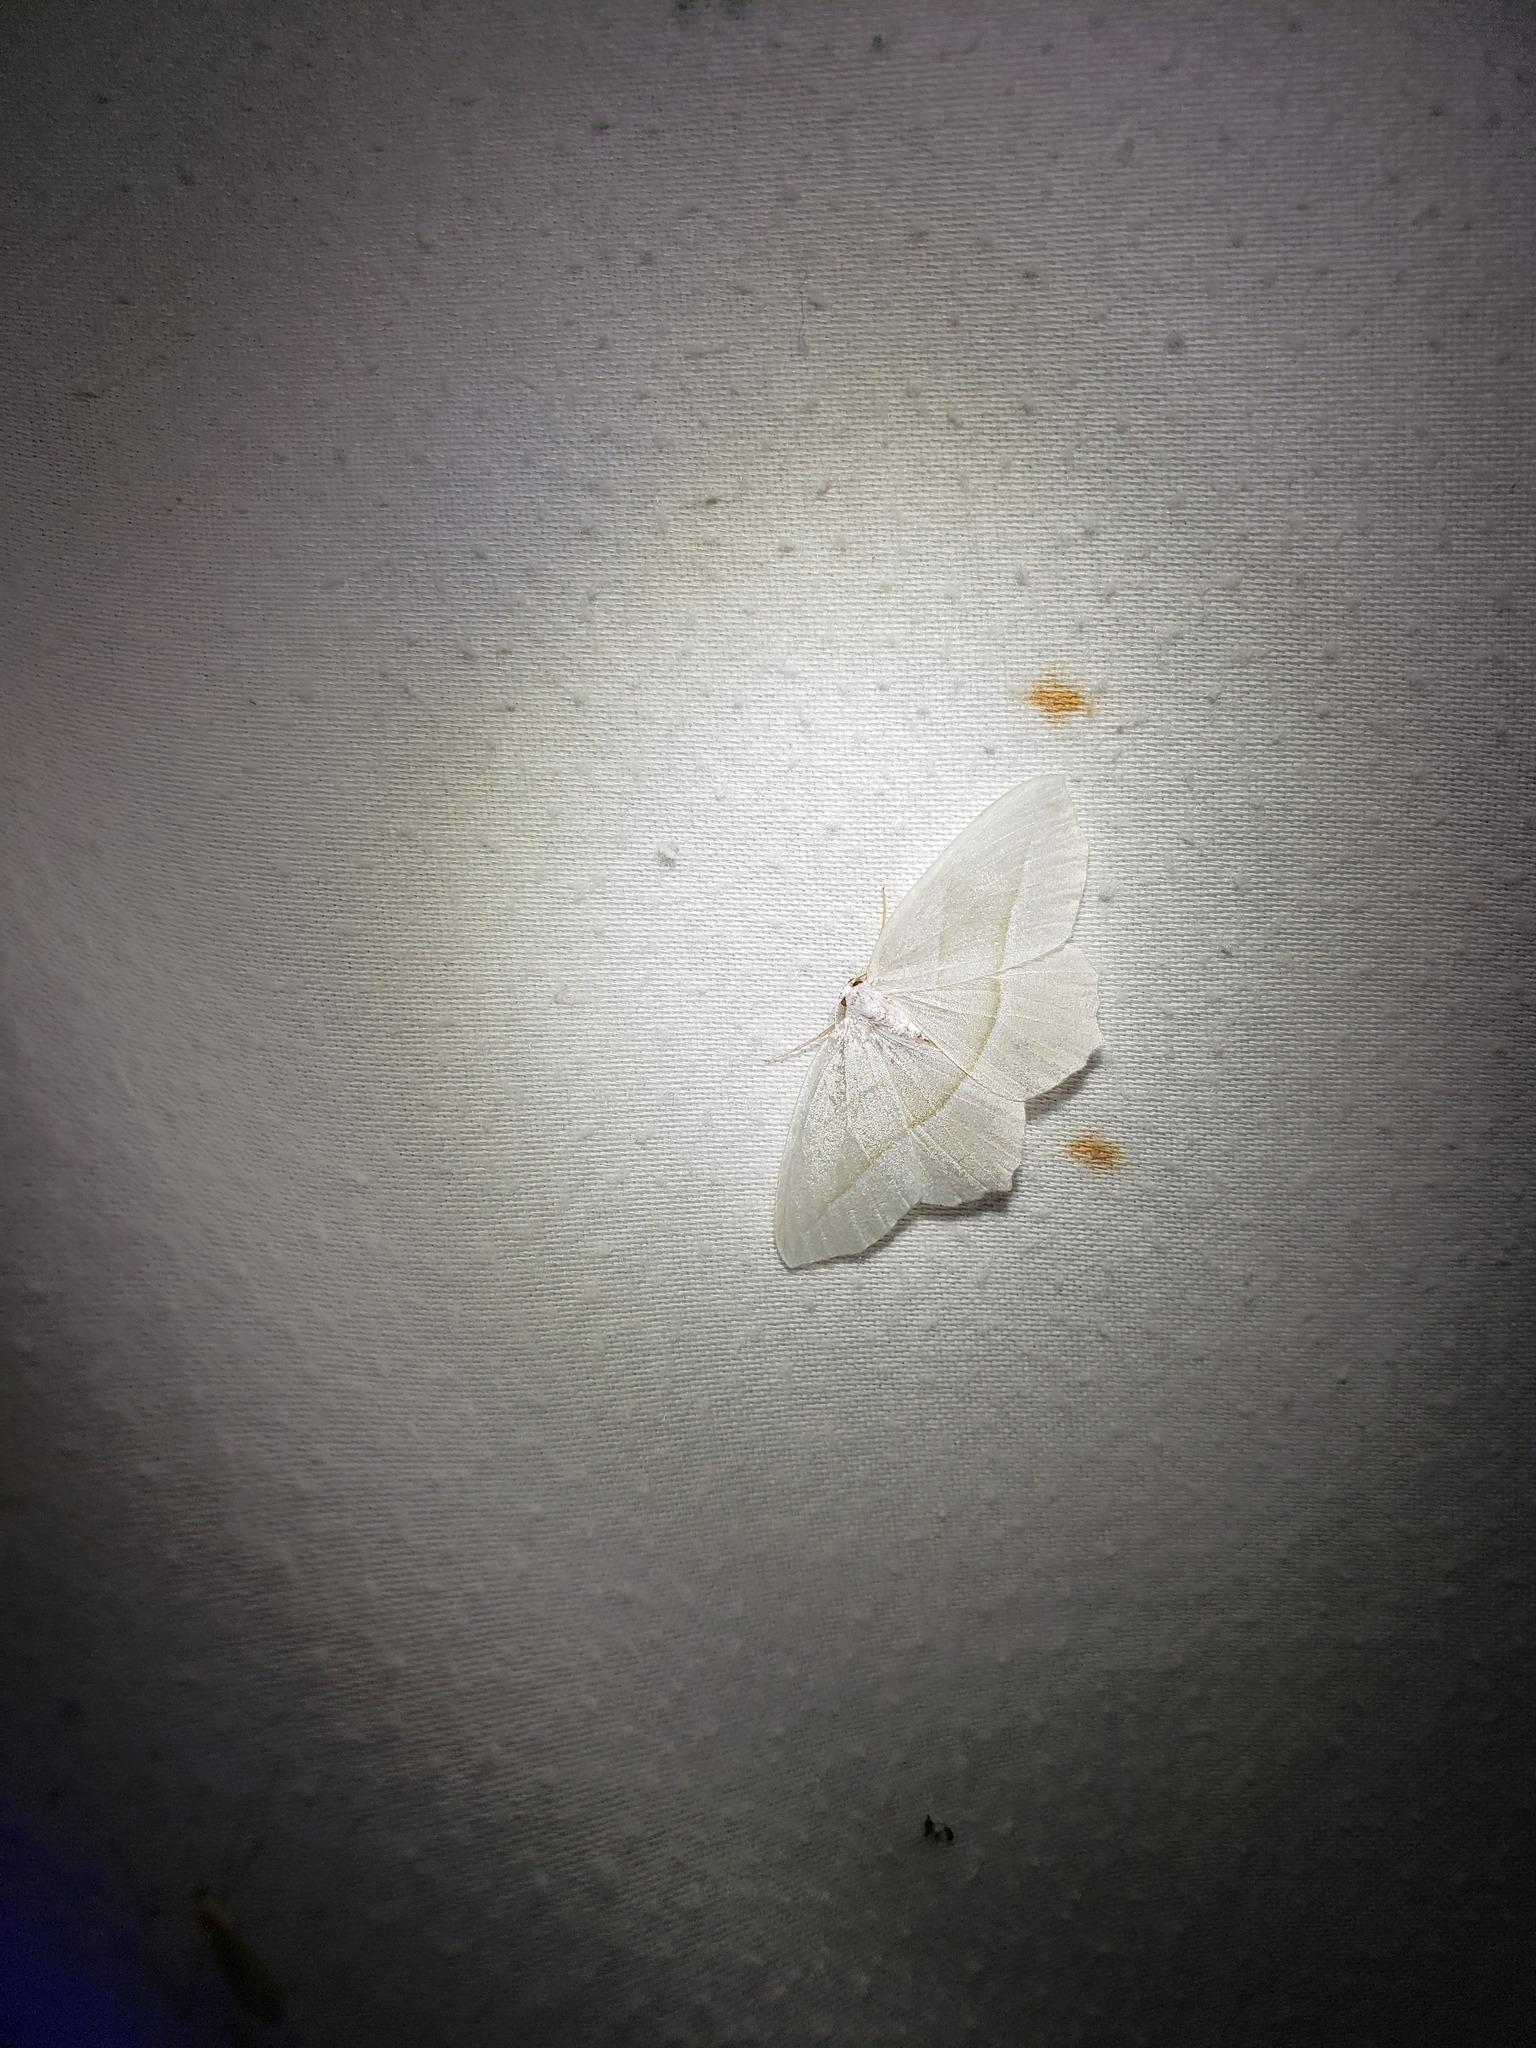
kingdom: Animalia
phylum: Arthropoda
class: Insecta
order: Lepidoptera
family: Geometridae
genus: Campaea
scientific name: Campaea perlata
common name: Fringed looper
